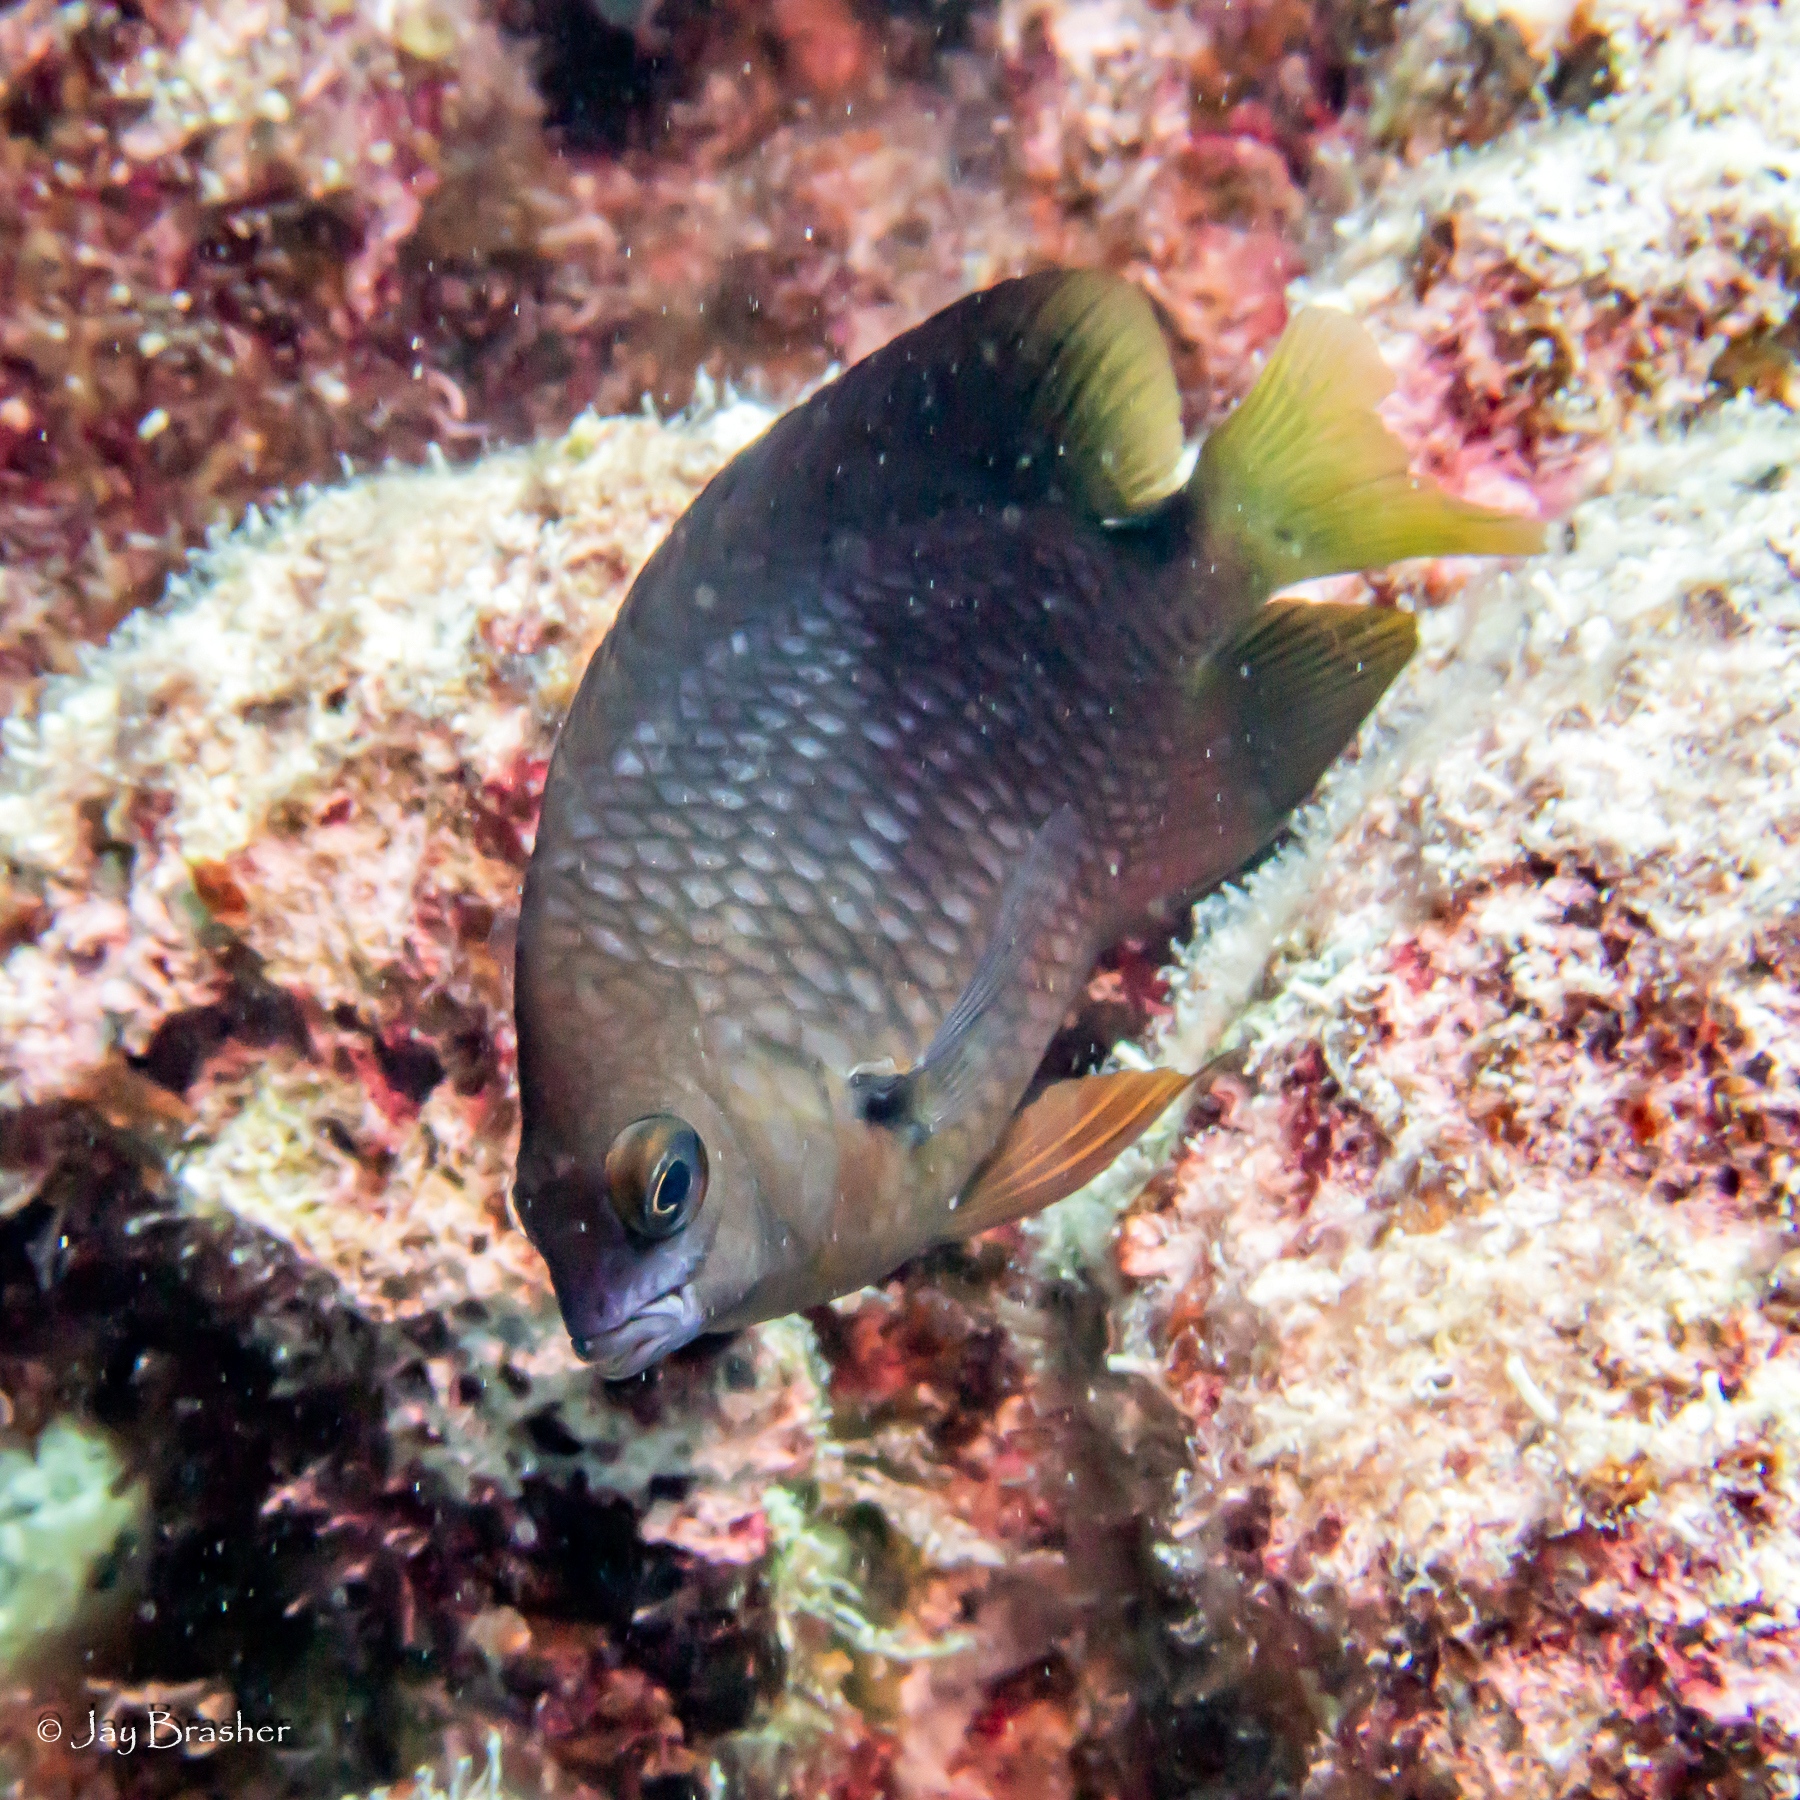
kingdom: Animalia
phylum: Chordata
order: Perciformes
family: Pomacentridae
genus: Stegastes
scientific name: Stegastes planifrons
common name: Threespot damselfish
